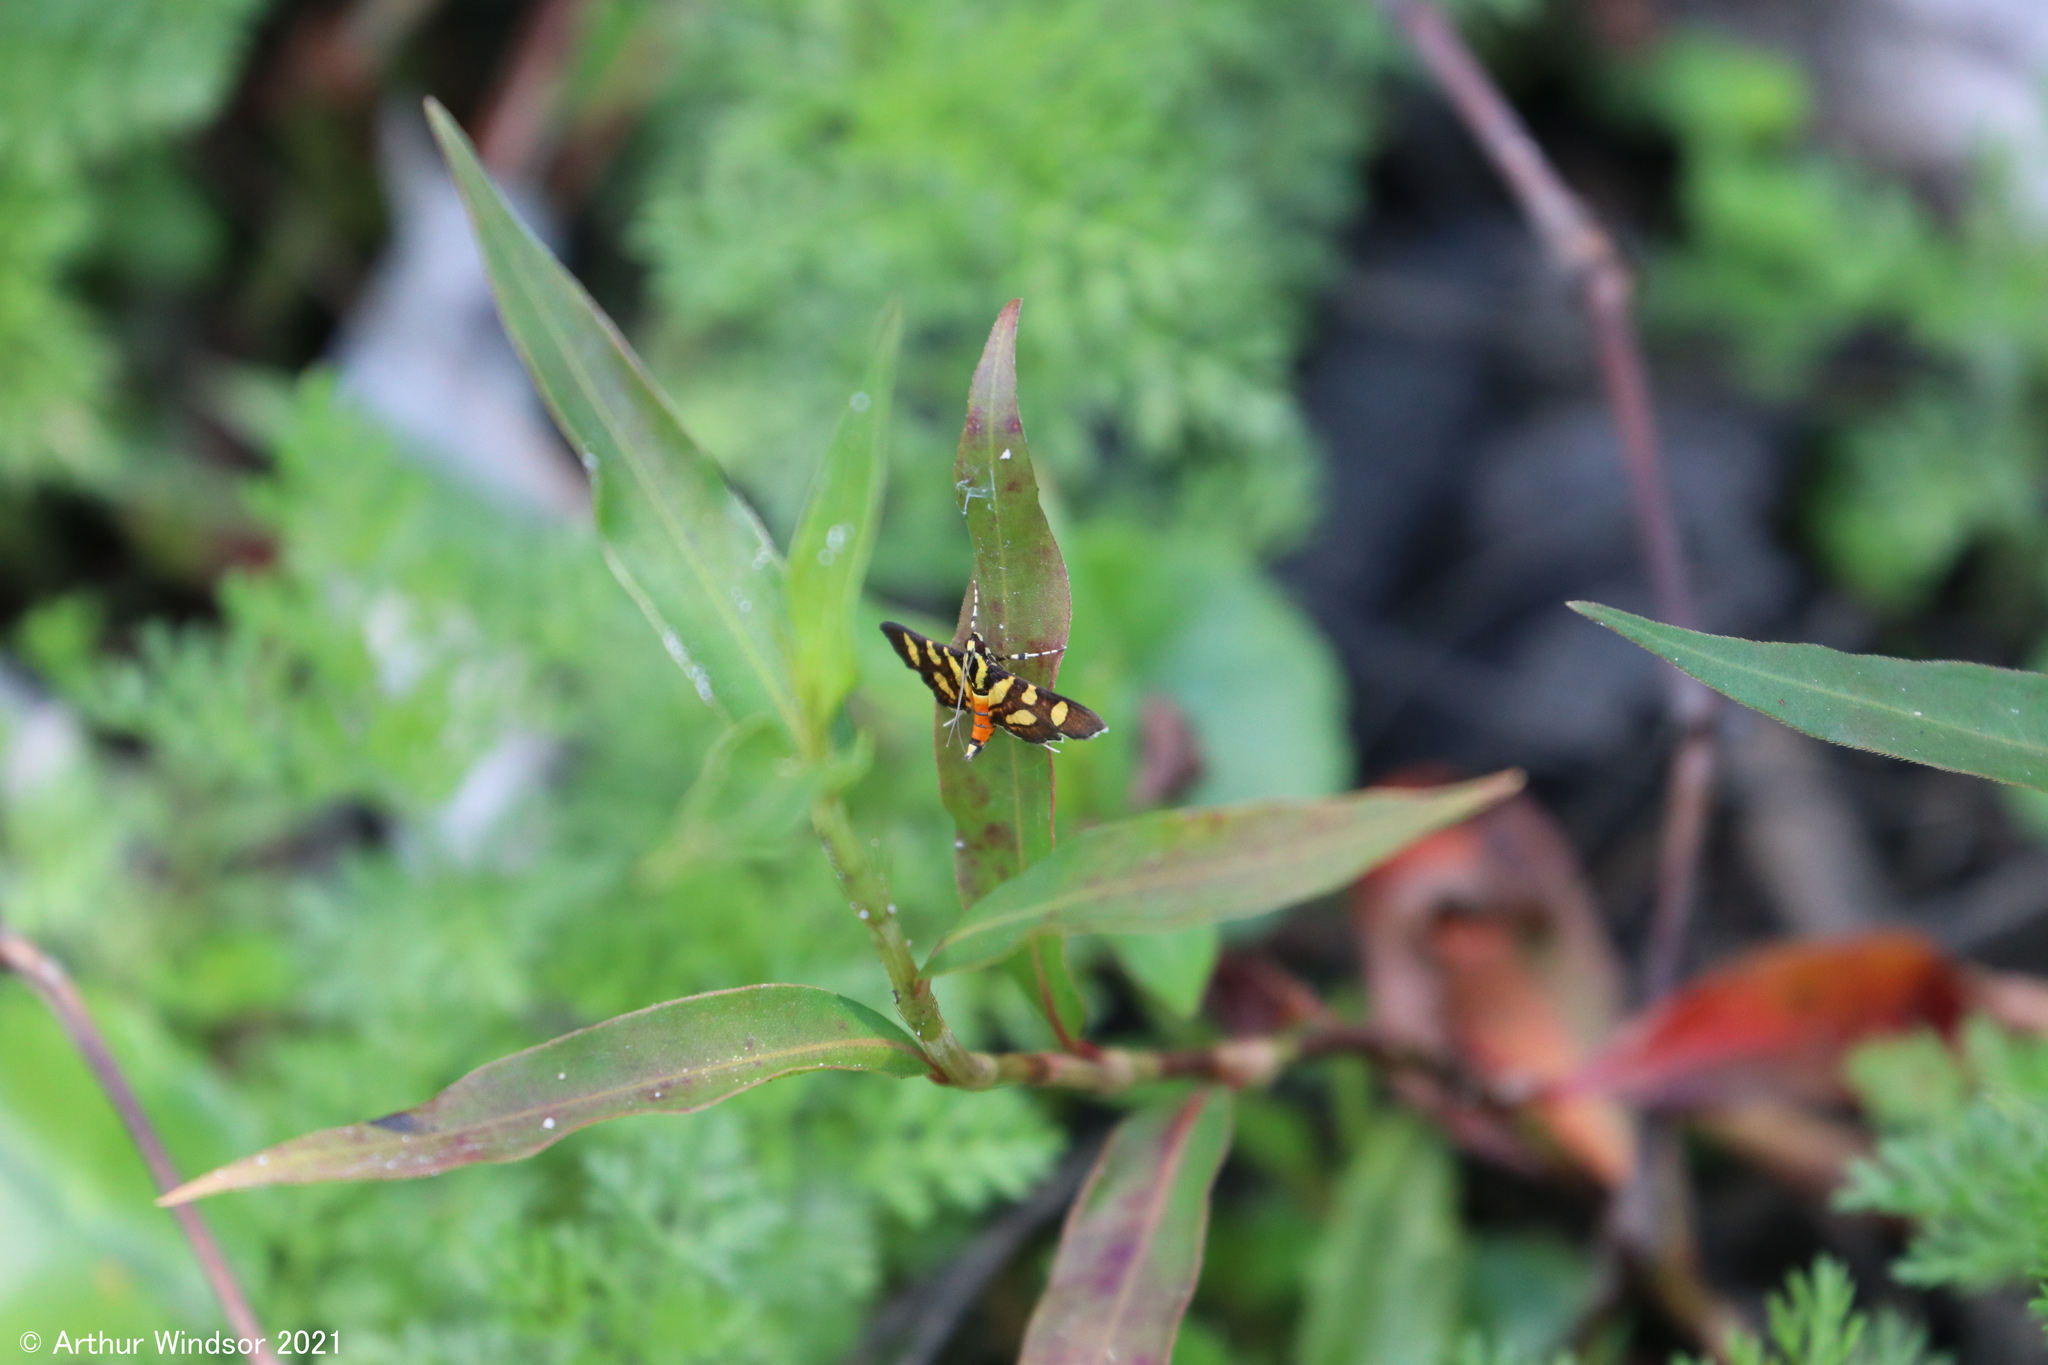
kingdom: Animalia
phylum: Arthropoda
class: Insecta
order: Lepidoptera
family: Crambidae
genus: Syngamia
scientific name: Syngamia florella
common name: Orange-spotted flower moth
